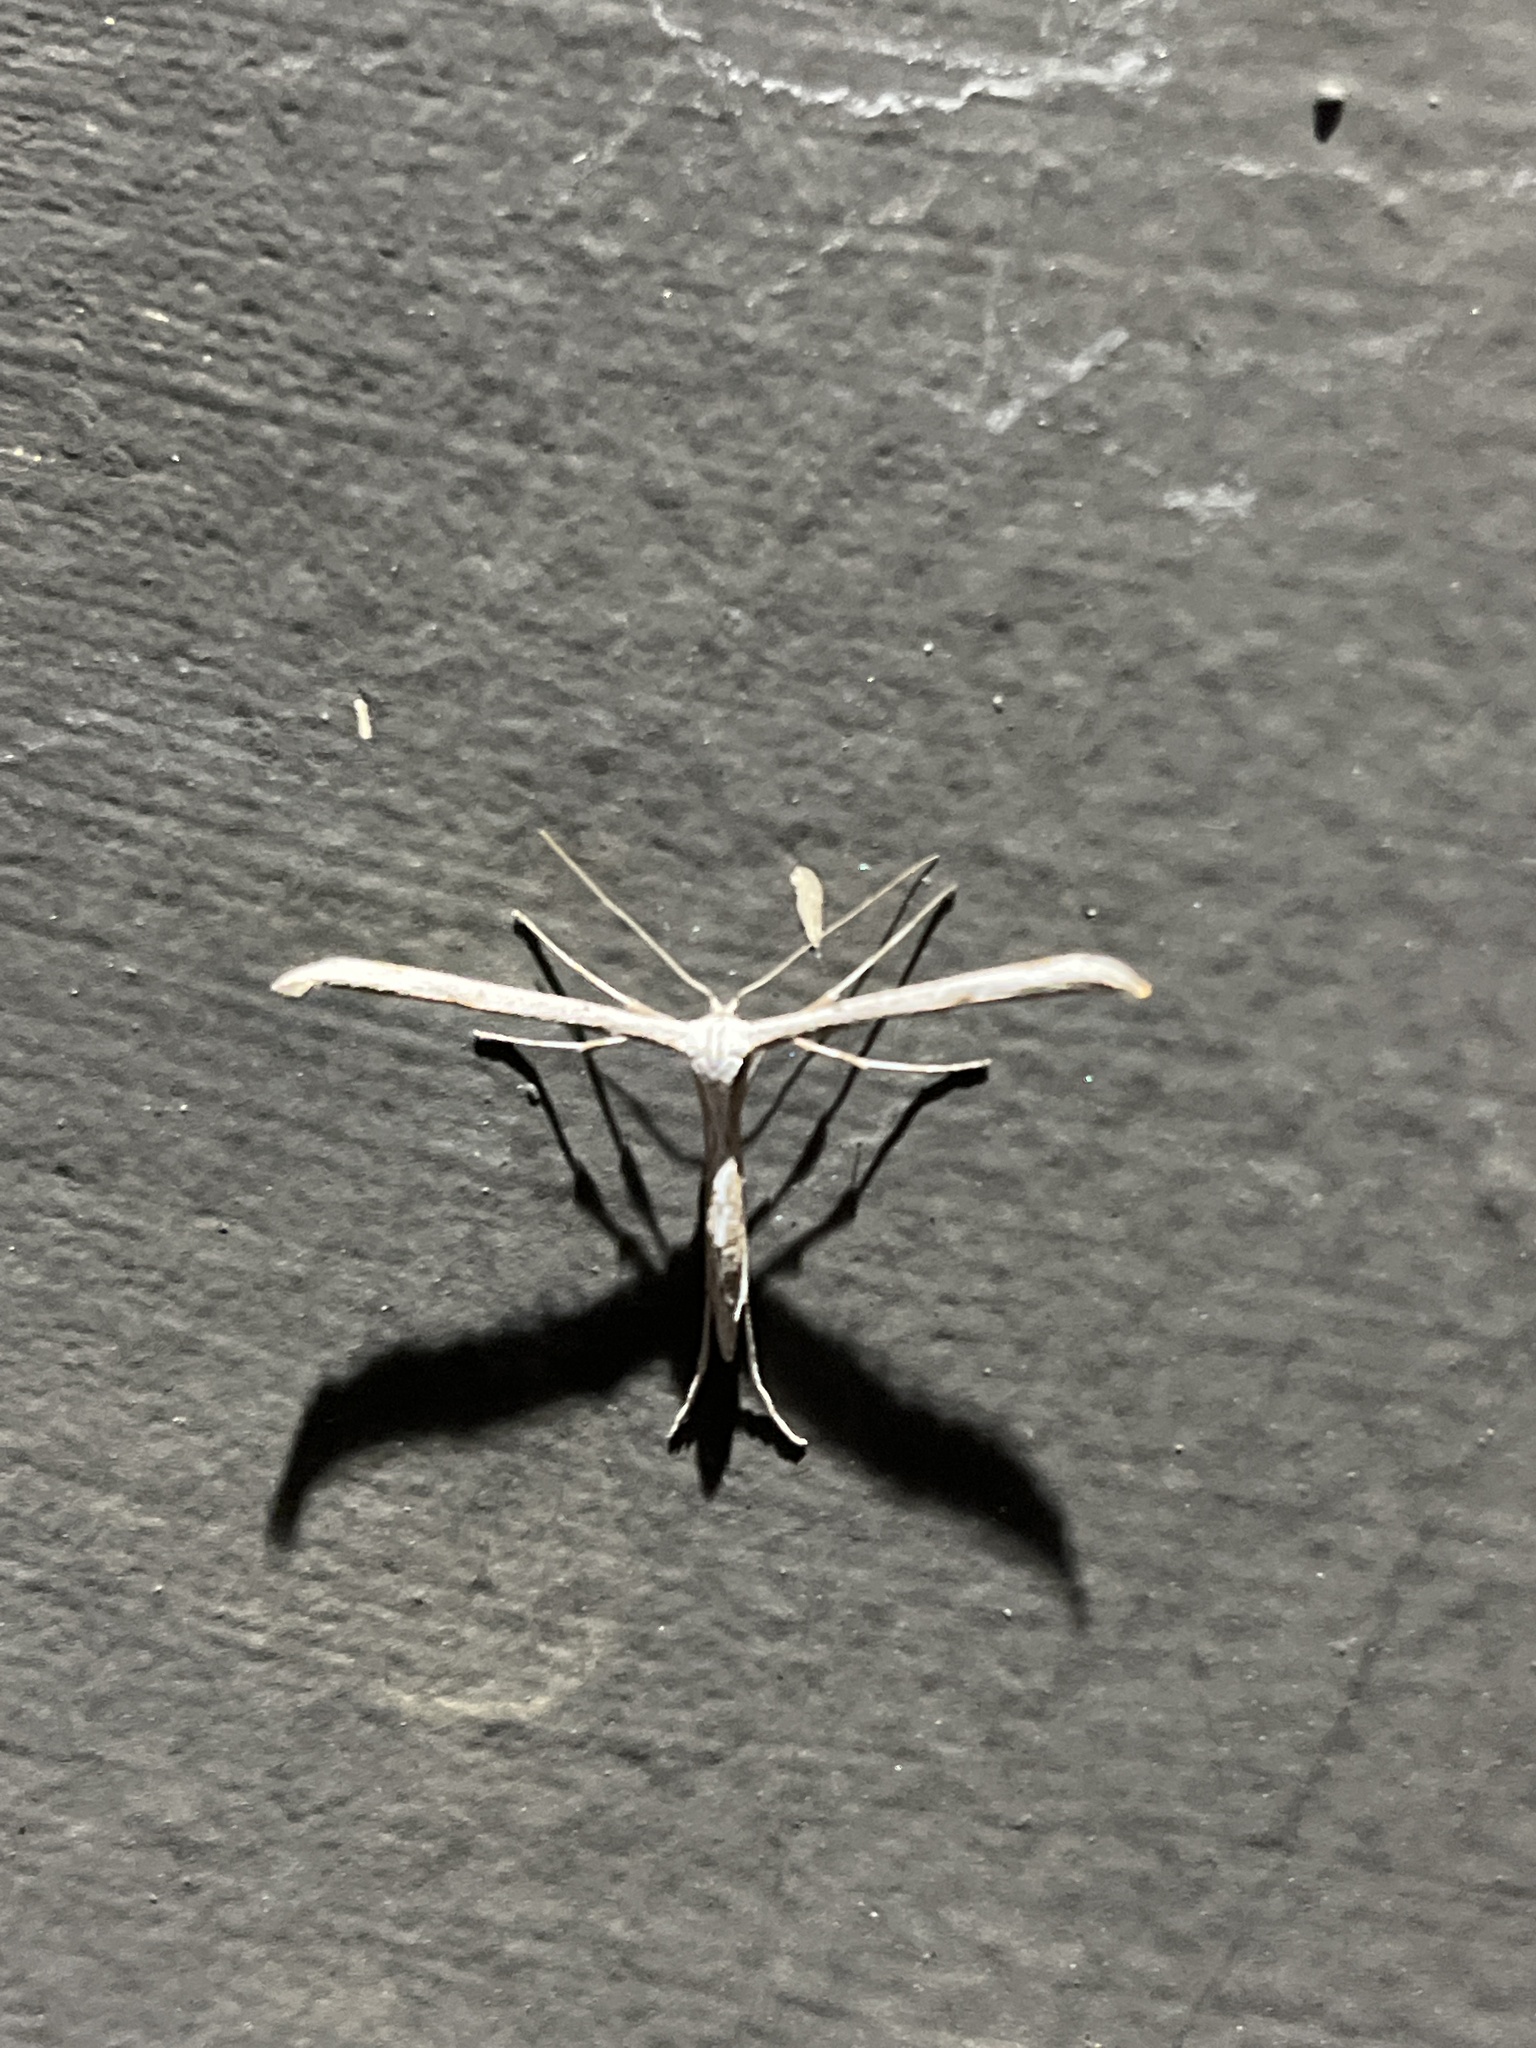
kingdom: Animalia
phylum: Arthropoda
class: Insecta
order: Lepidoptera
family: Pterophoridae
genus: Emmelina
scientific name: Emmelina monodactyla
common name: Common plume
